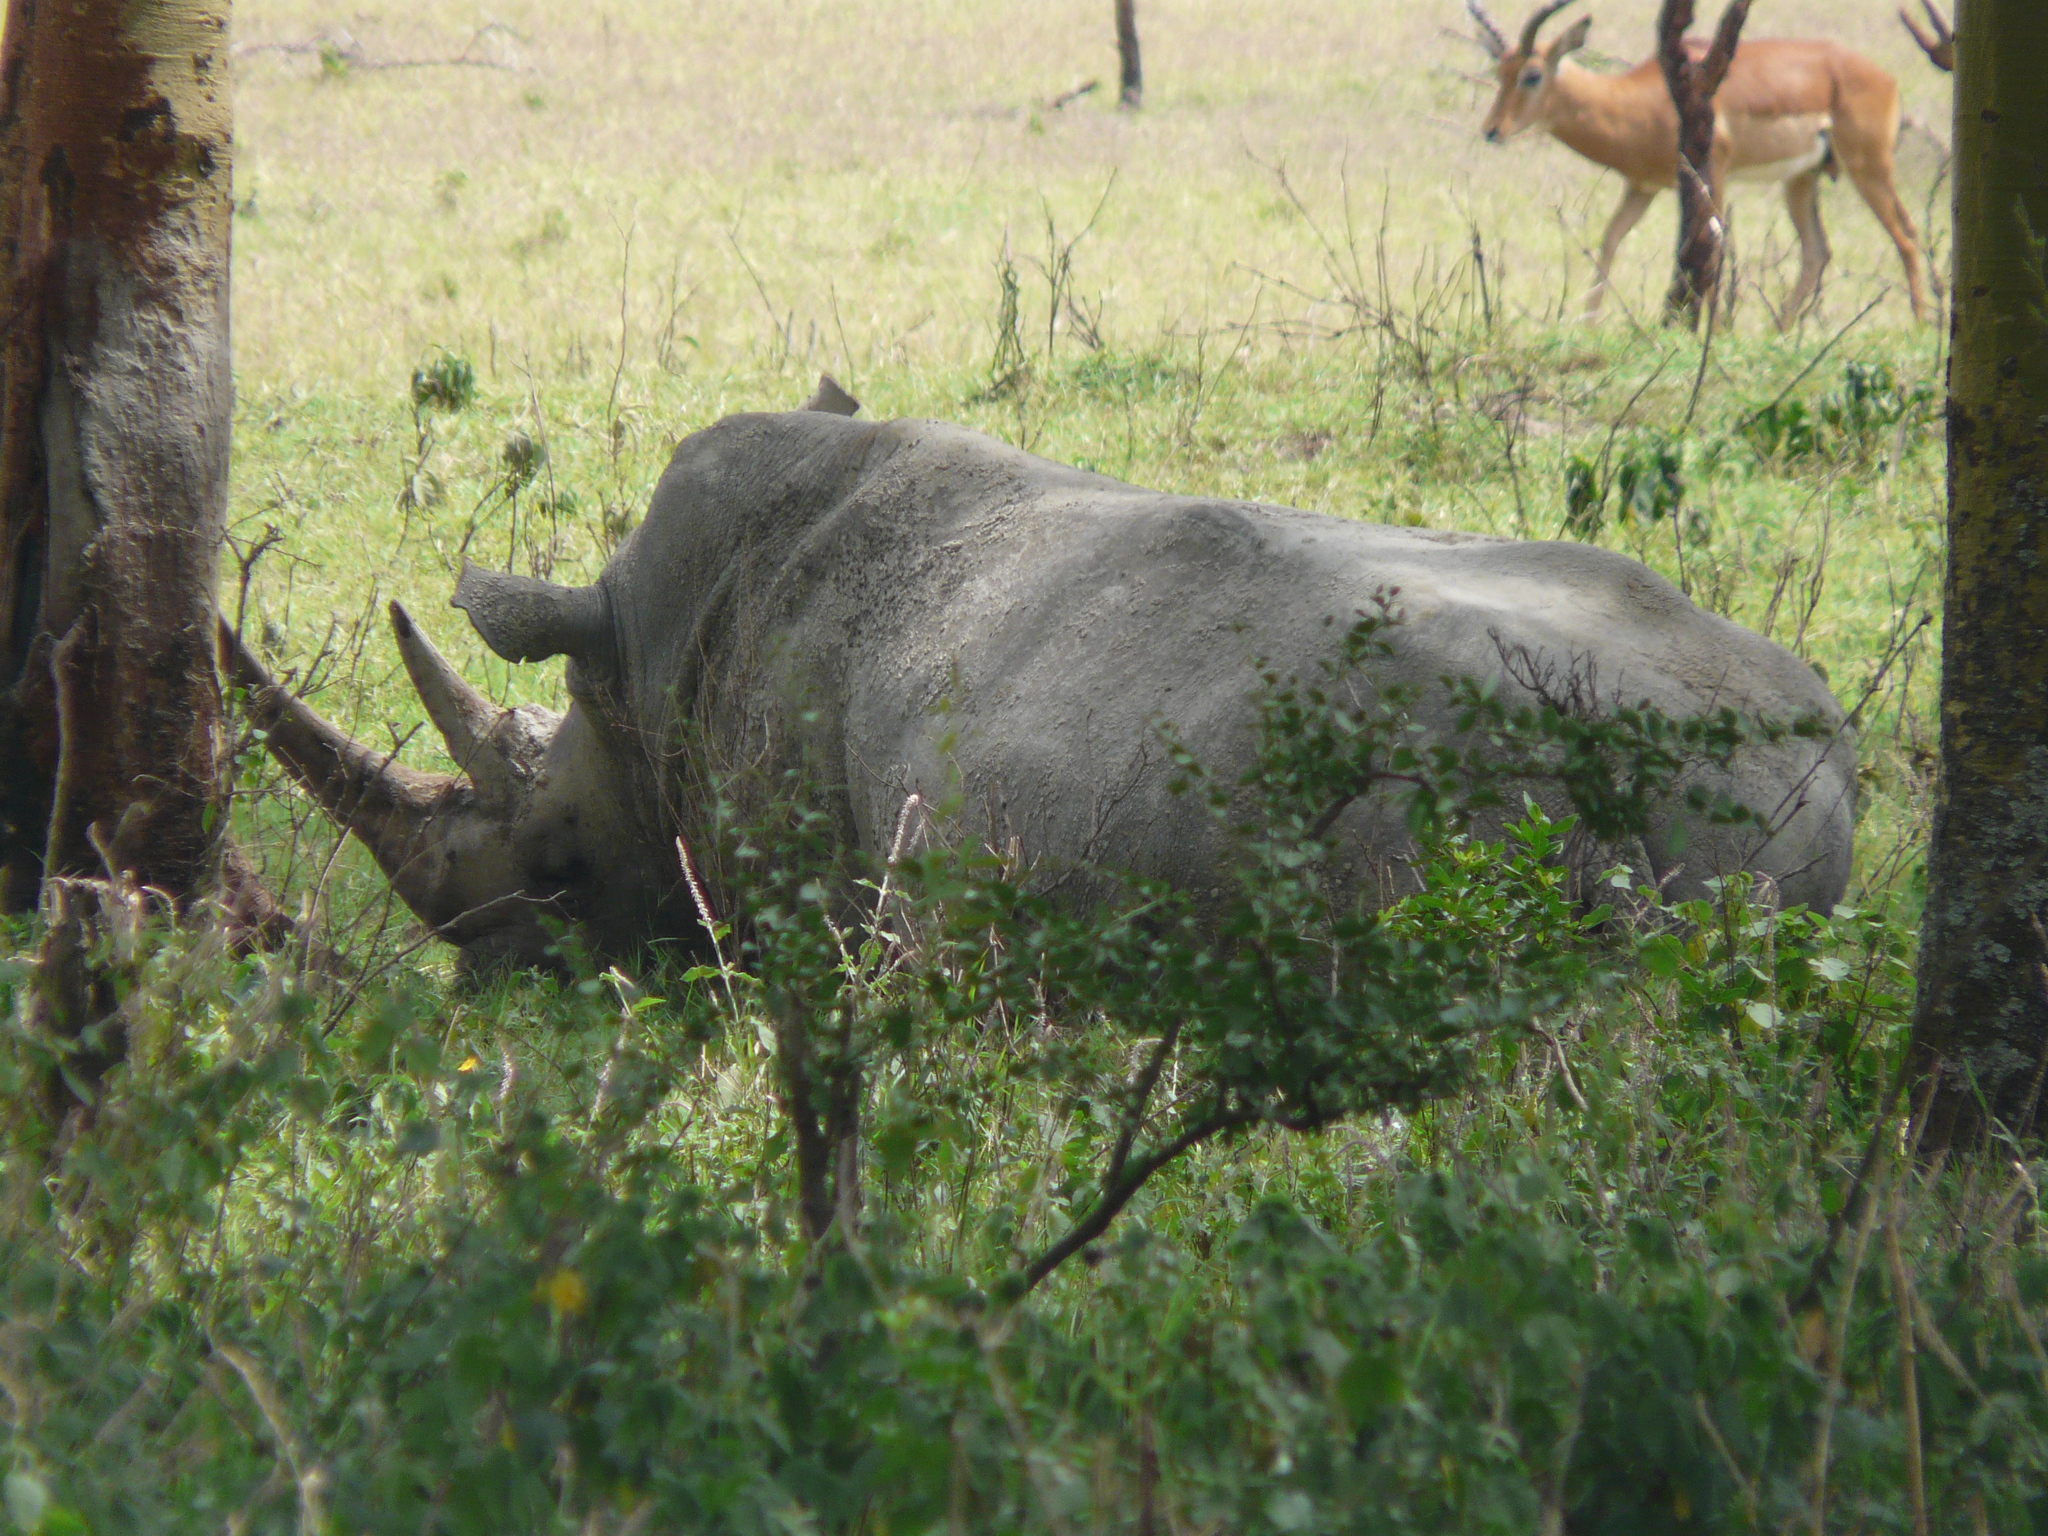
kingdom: Animalia
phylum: Chordata
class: Mammalia
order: Perissodactyla
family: Rhinocerotidae
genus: Ceratotherium
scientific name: Ceratotherium simum
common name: White rhinoceros
